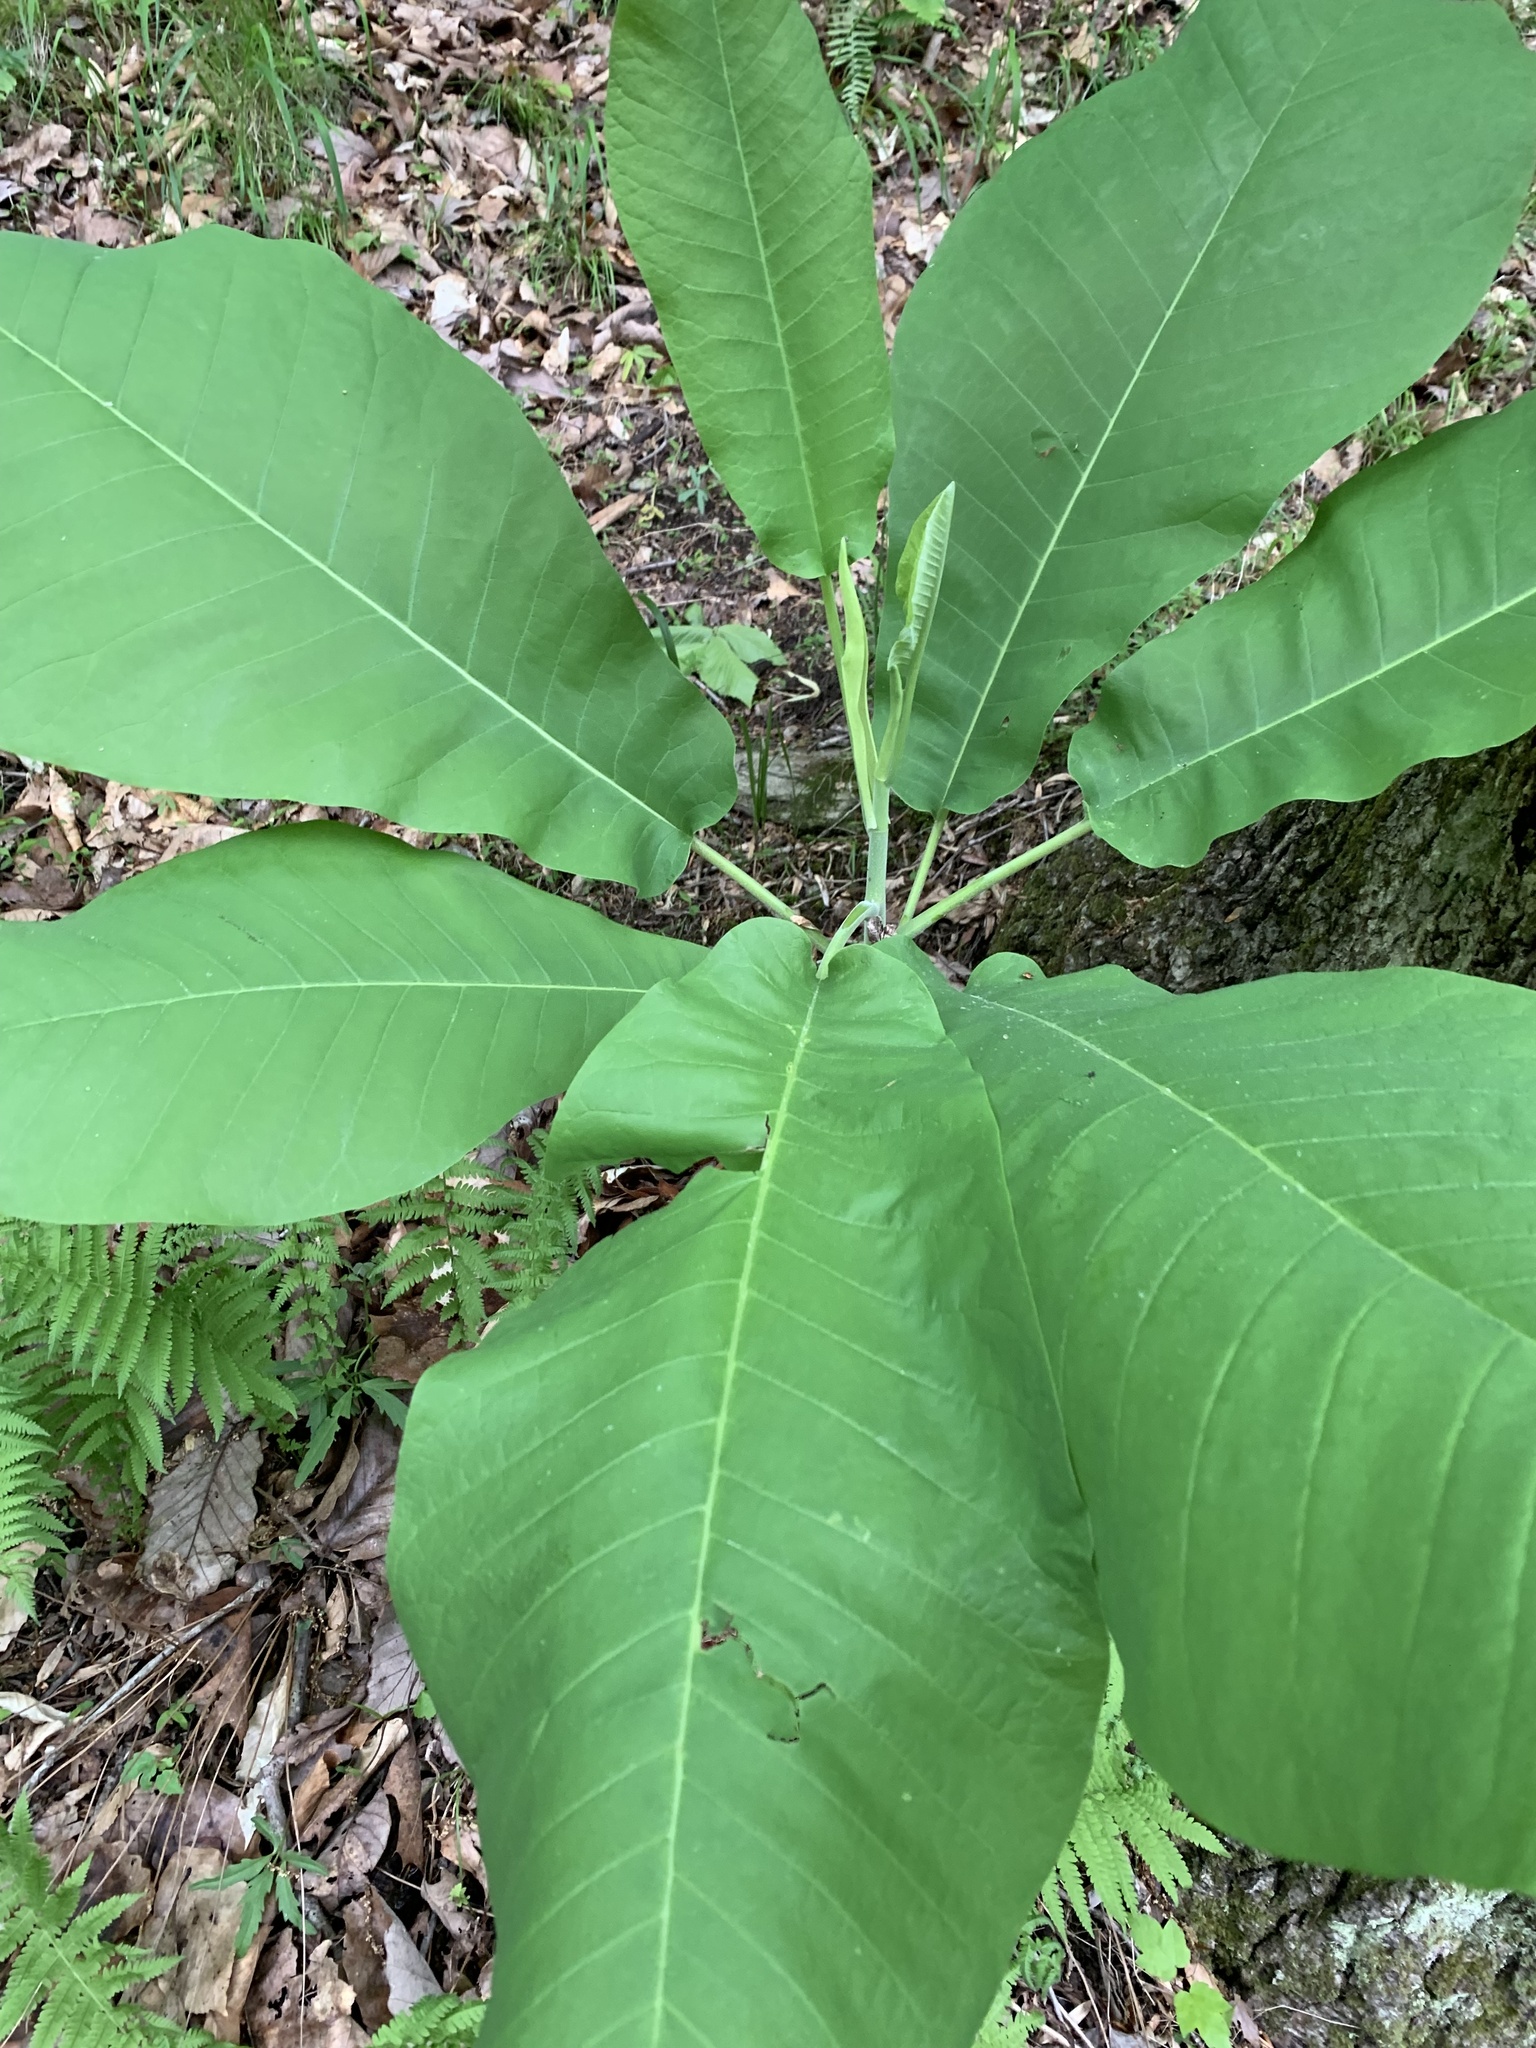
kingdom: Plantae
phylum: Tracheophyta
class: Magnoliopsida
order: Magnoliales
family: Magnoliaceae
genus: Magnolia
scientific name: Magnolia macrophylla
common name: Big-leaf magnolia
